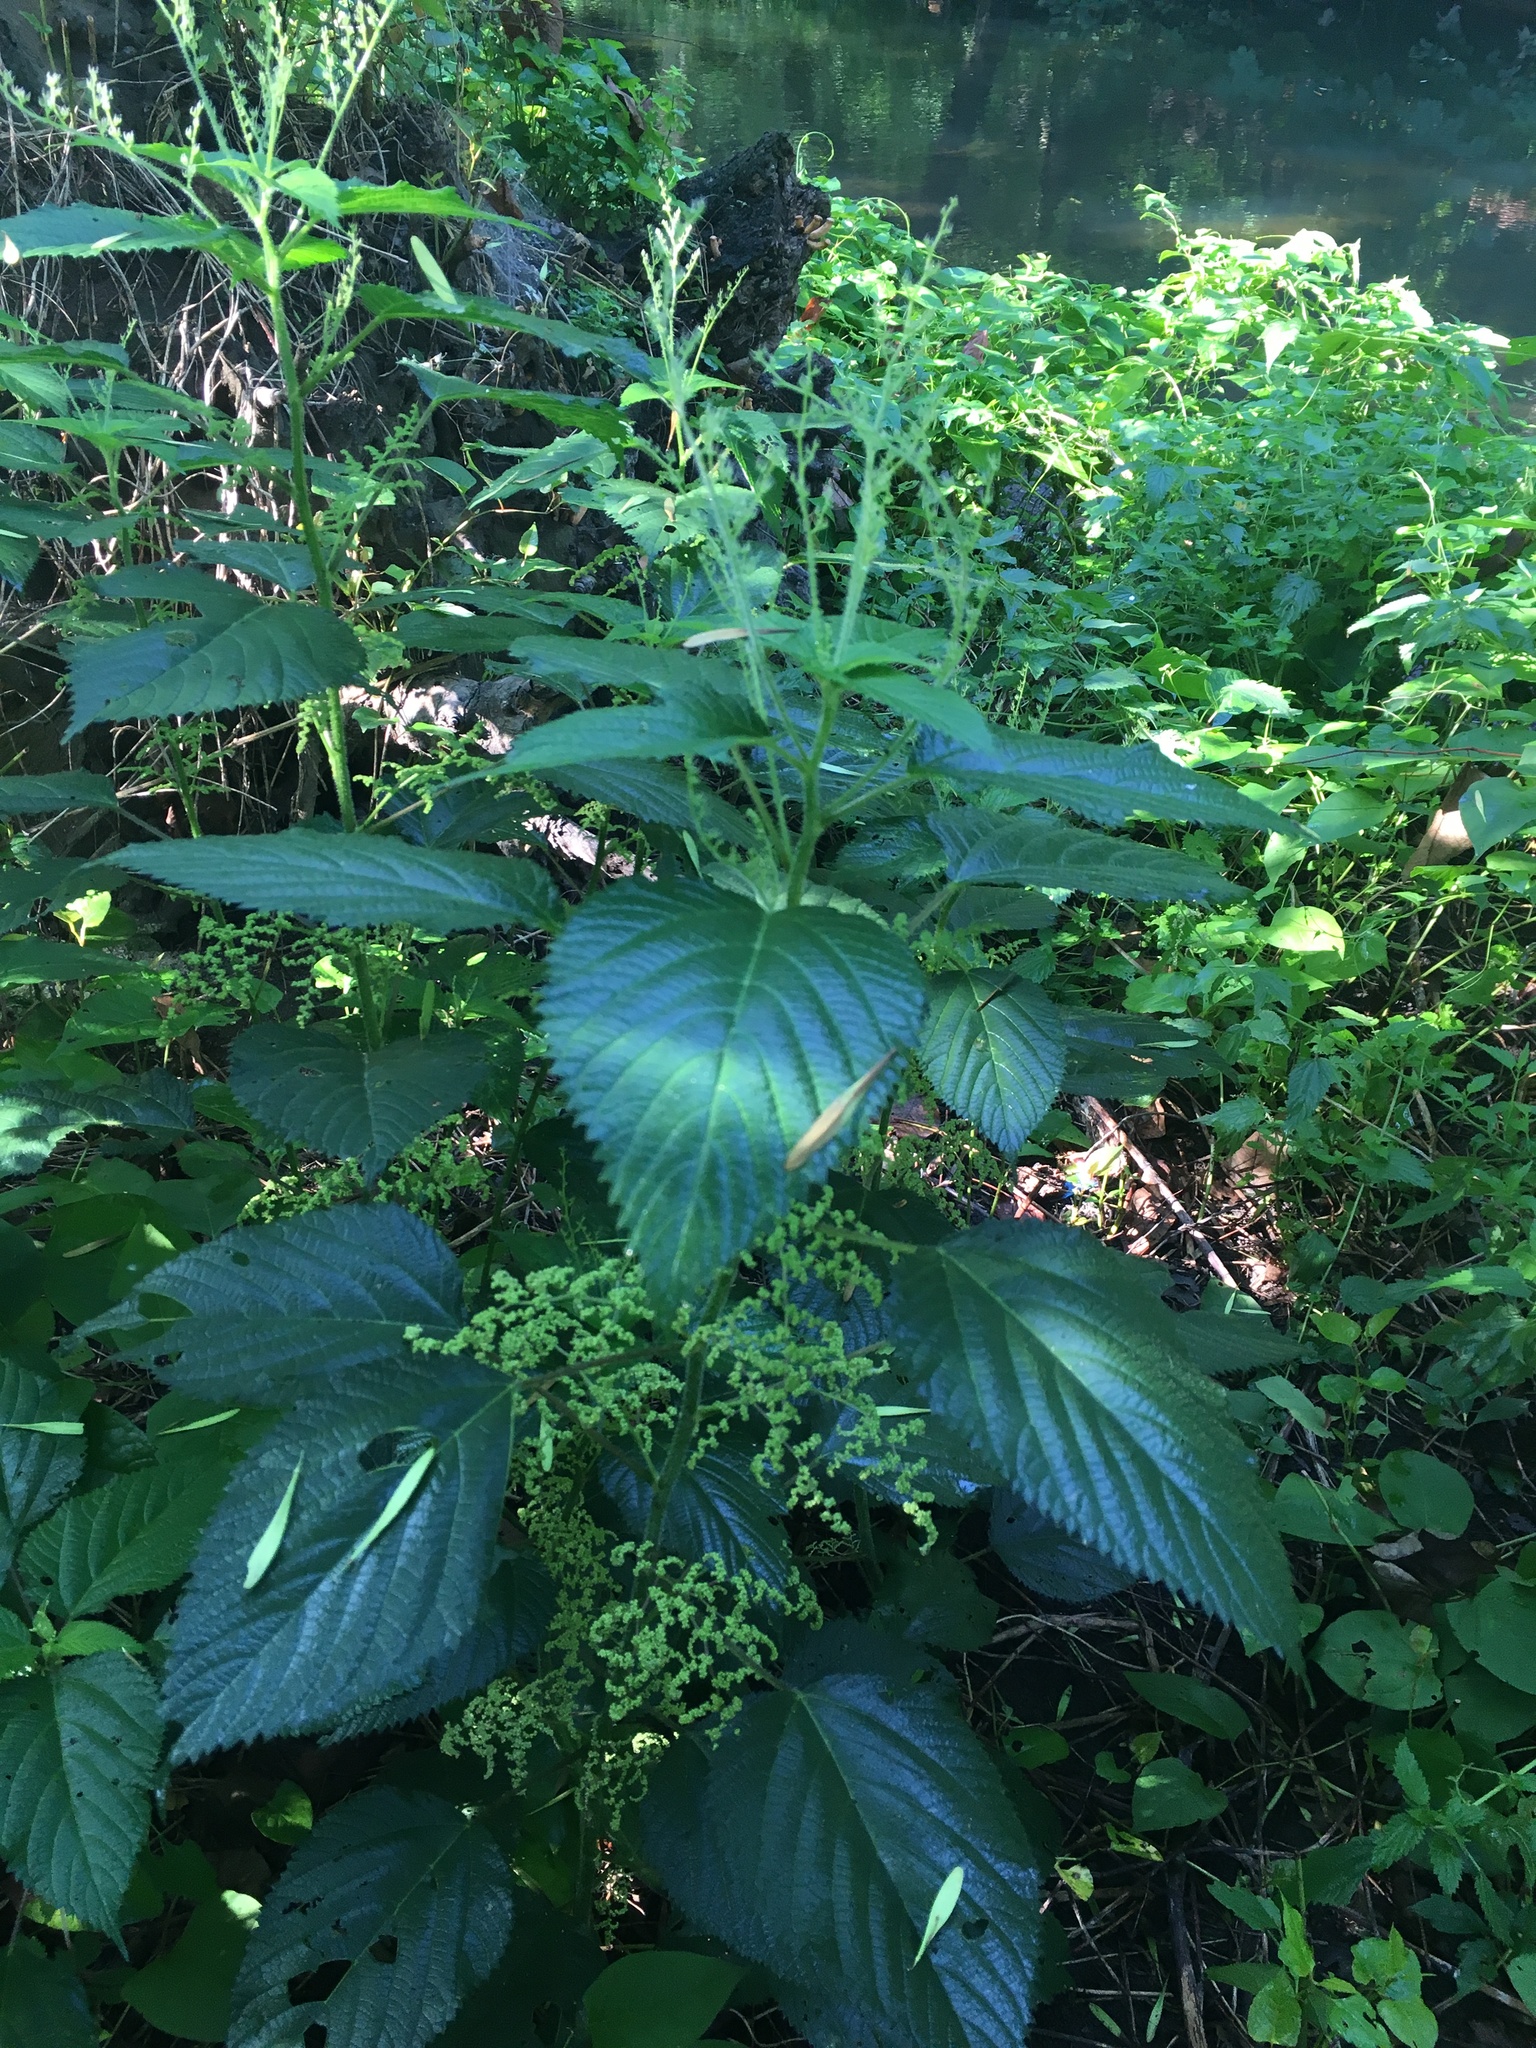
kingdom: Plantae
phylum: Tracheophyta
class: Magnoliopsida
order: Rosales
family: Urticaceae
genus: Laportea
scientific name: Laportea canadensis
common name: Canada nettle
